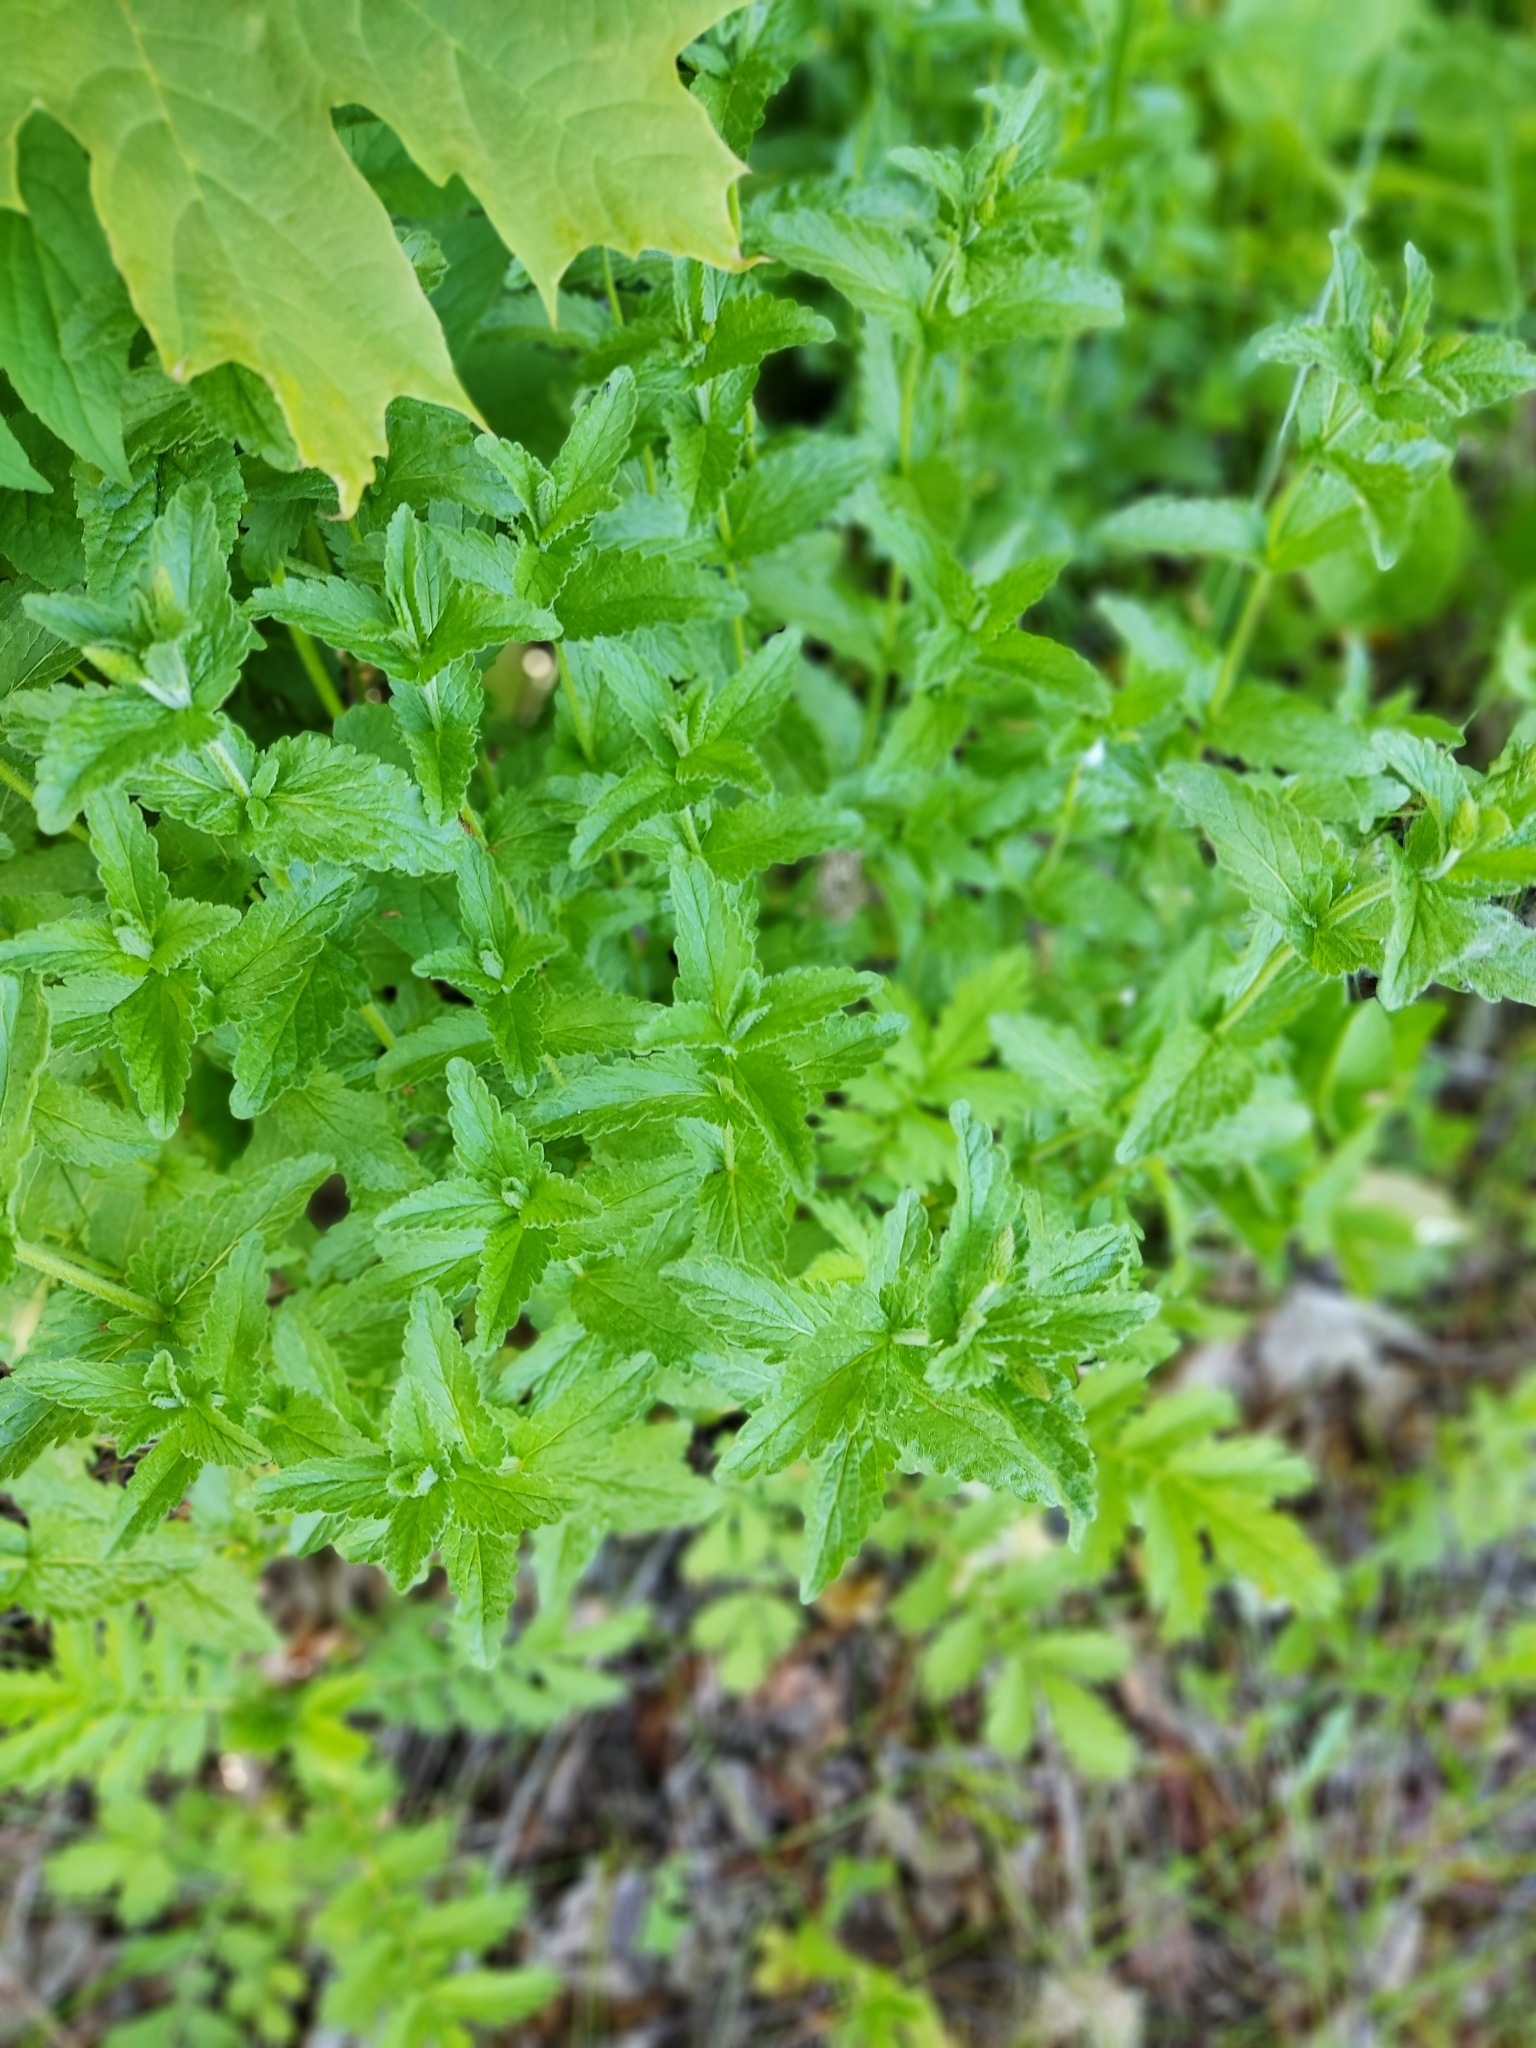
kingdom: Plantae
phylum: Tracheophyta
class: Magnoliopsida
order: Lamiales
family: Plantaginaceae
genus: Veronica
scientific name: Veronica teucrium
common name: Large speedwell
